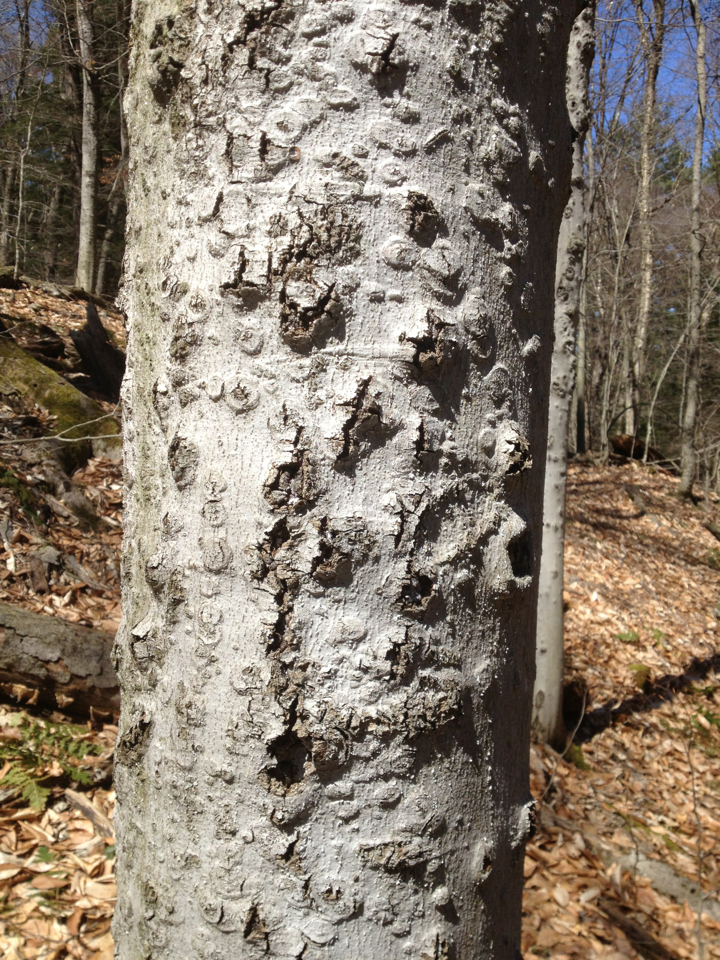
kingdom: Plantae
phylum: Tracheophyta
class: Magnoliopsida
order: Fagales
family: Fagaceae
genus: Fagus
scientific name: Fagus grandifolia
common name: American beech
